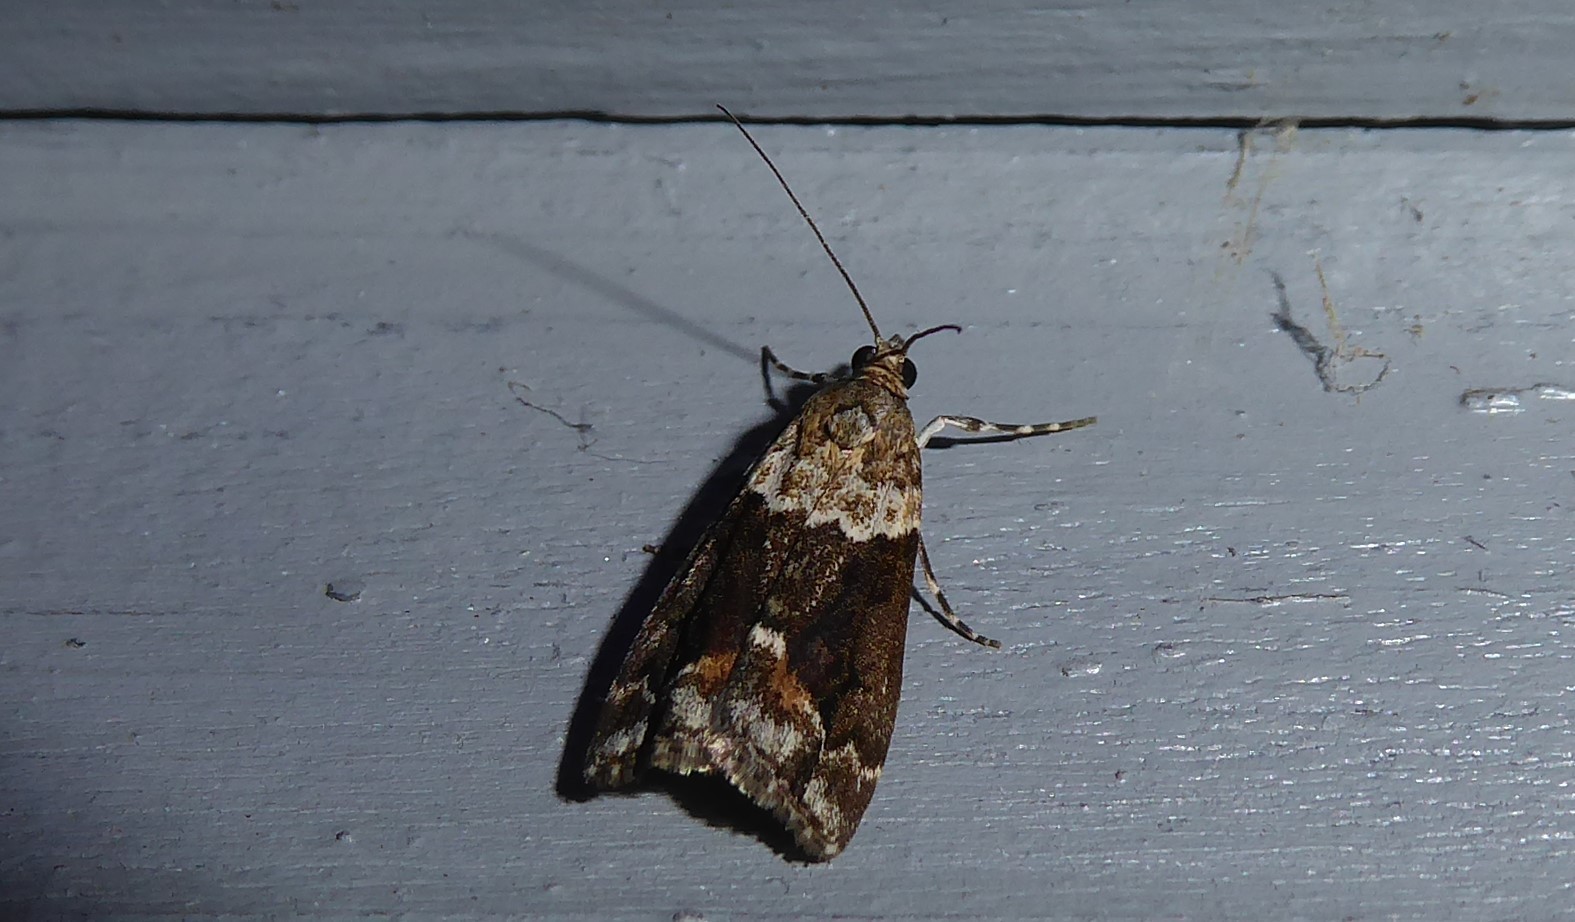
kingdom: Animalia
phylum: Arthropoda
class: Insecta
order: Lepidoptera
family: Crambidae
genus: Eudonia
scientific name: Eudonia submarginalis
